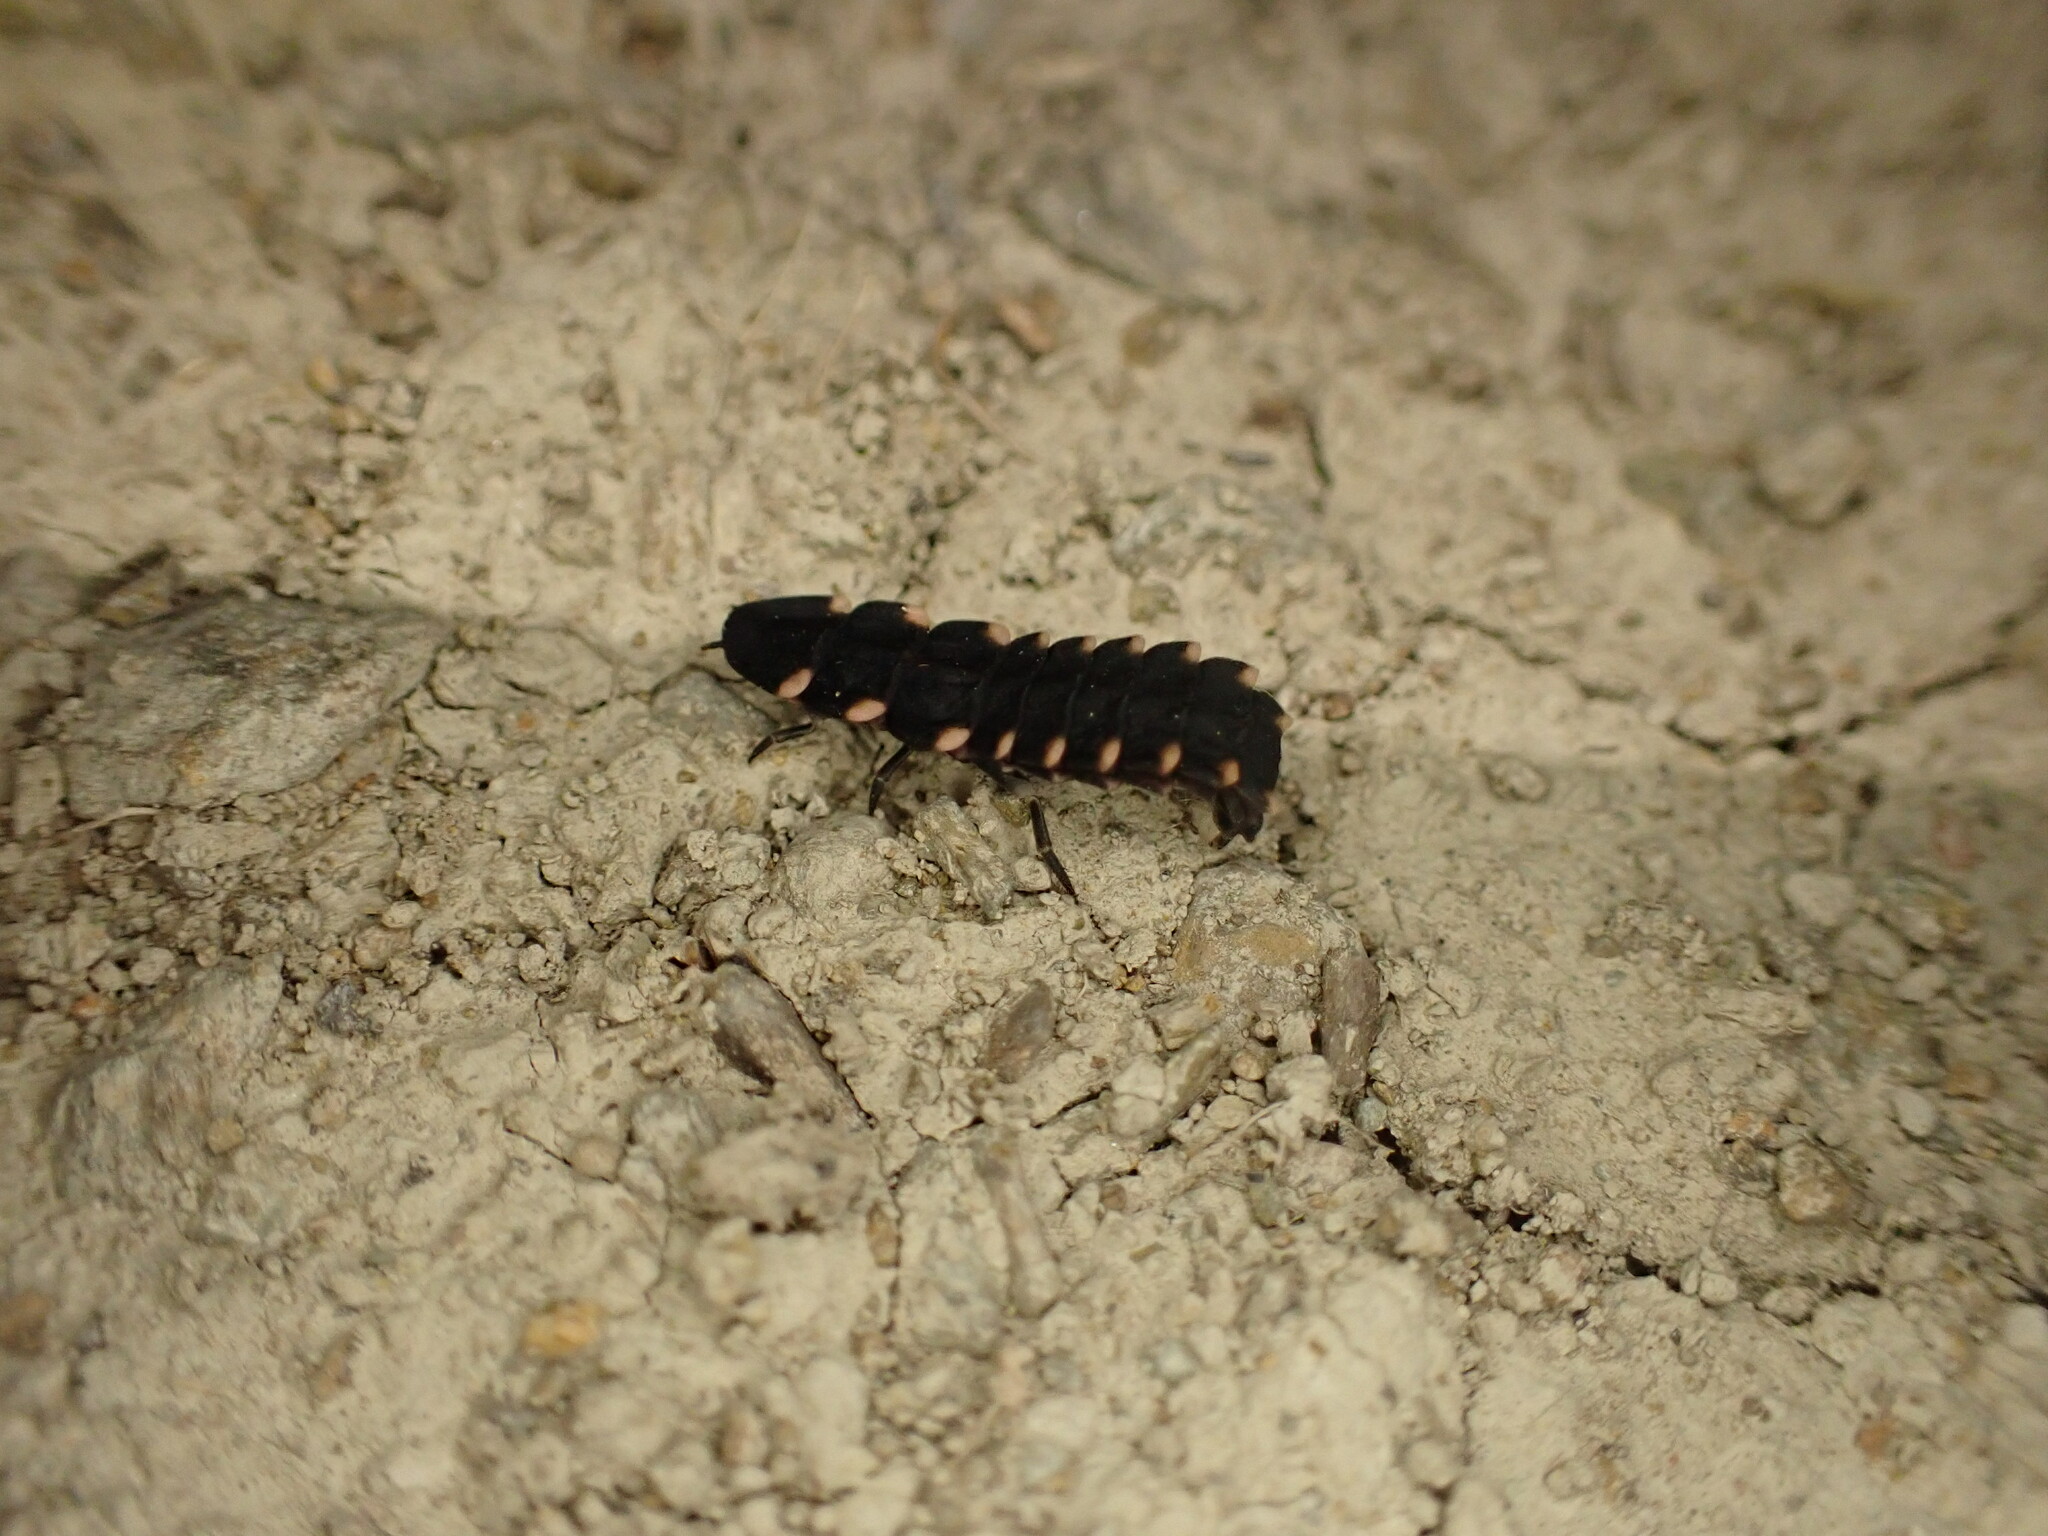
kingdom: Animalia
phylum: Arthropoda
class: Insecta
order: Coleoptera
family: Lampyridae
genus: Lampyris
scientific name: Lampyris noctiluca
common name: Glow-worm
